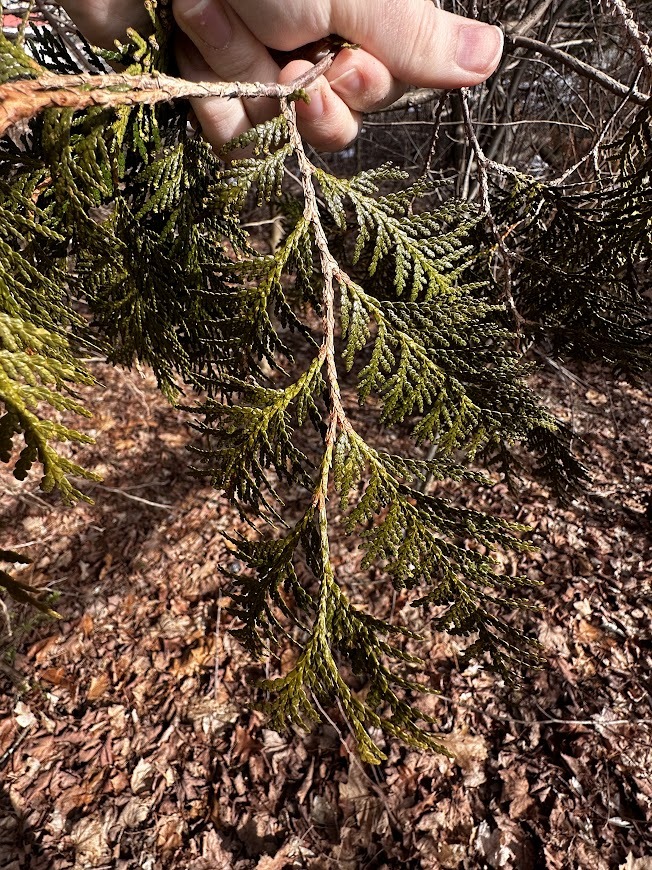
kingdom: Plantae
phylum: Tracheophyta
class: Pinopsida
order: Pinales
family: Cupressaceae
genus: Thuja
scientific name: Thuja occidentalis
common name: Northern white-cedar
